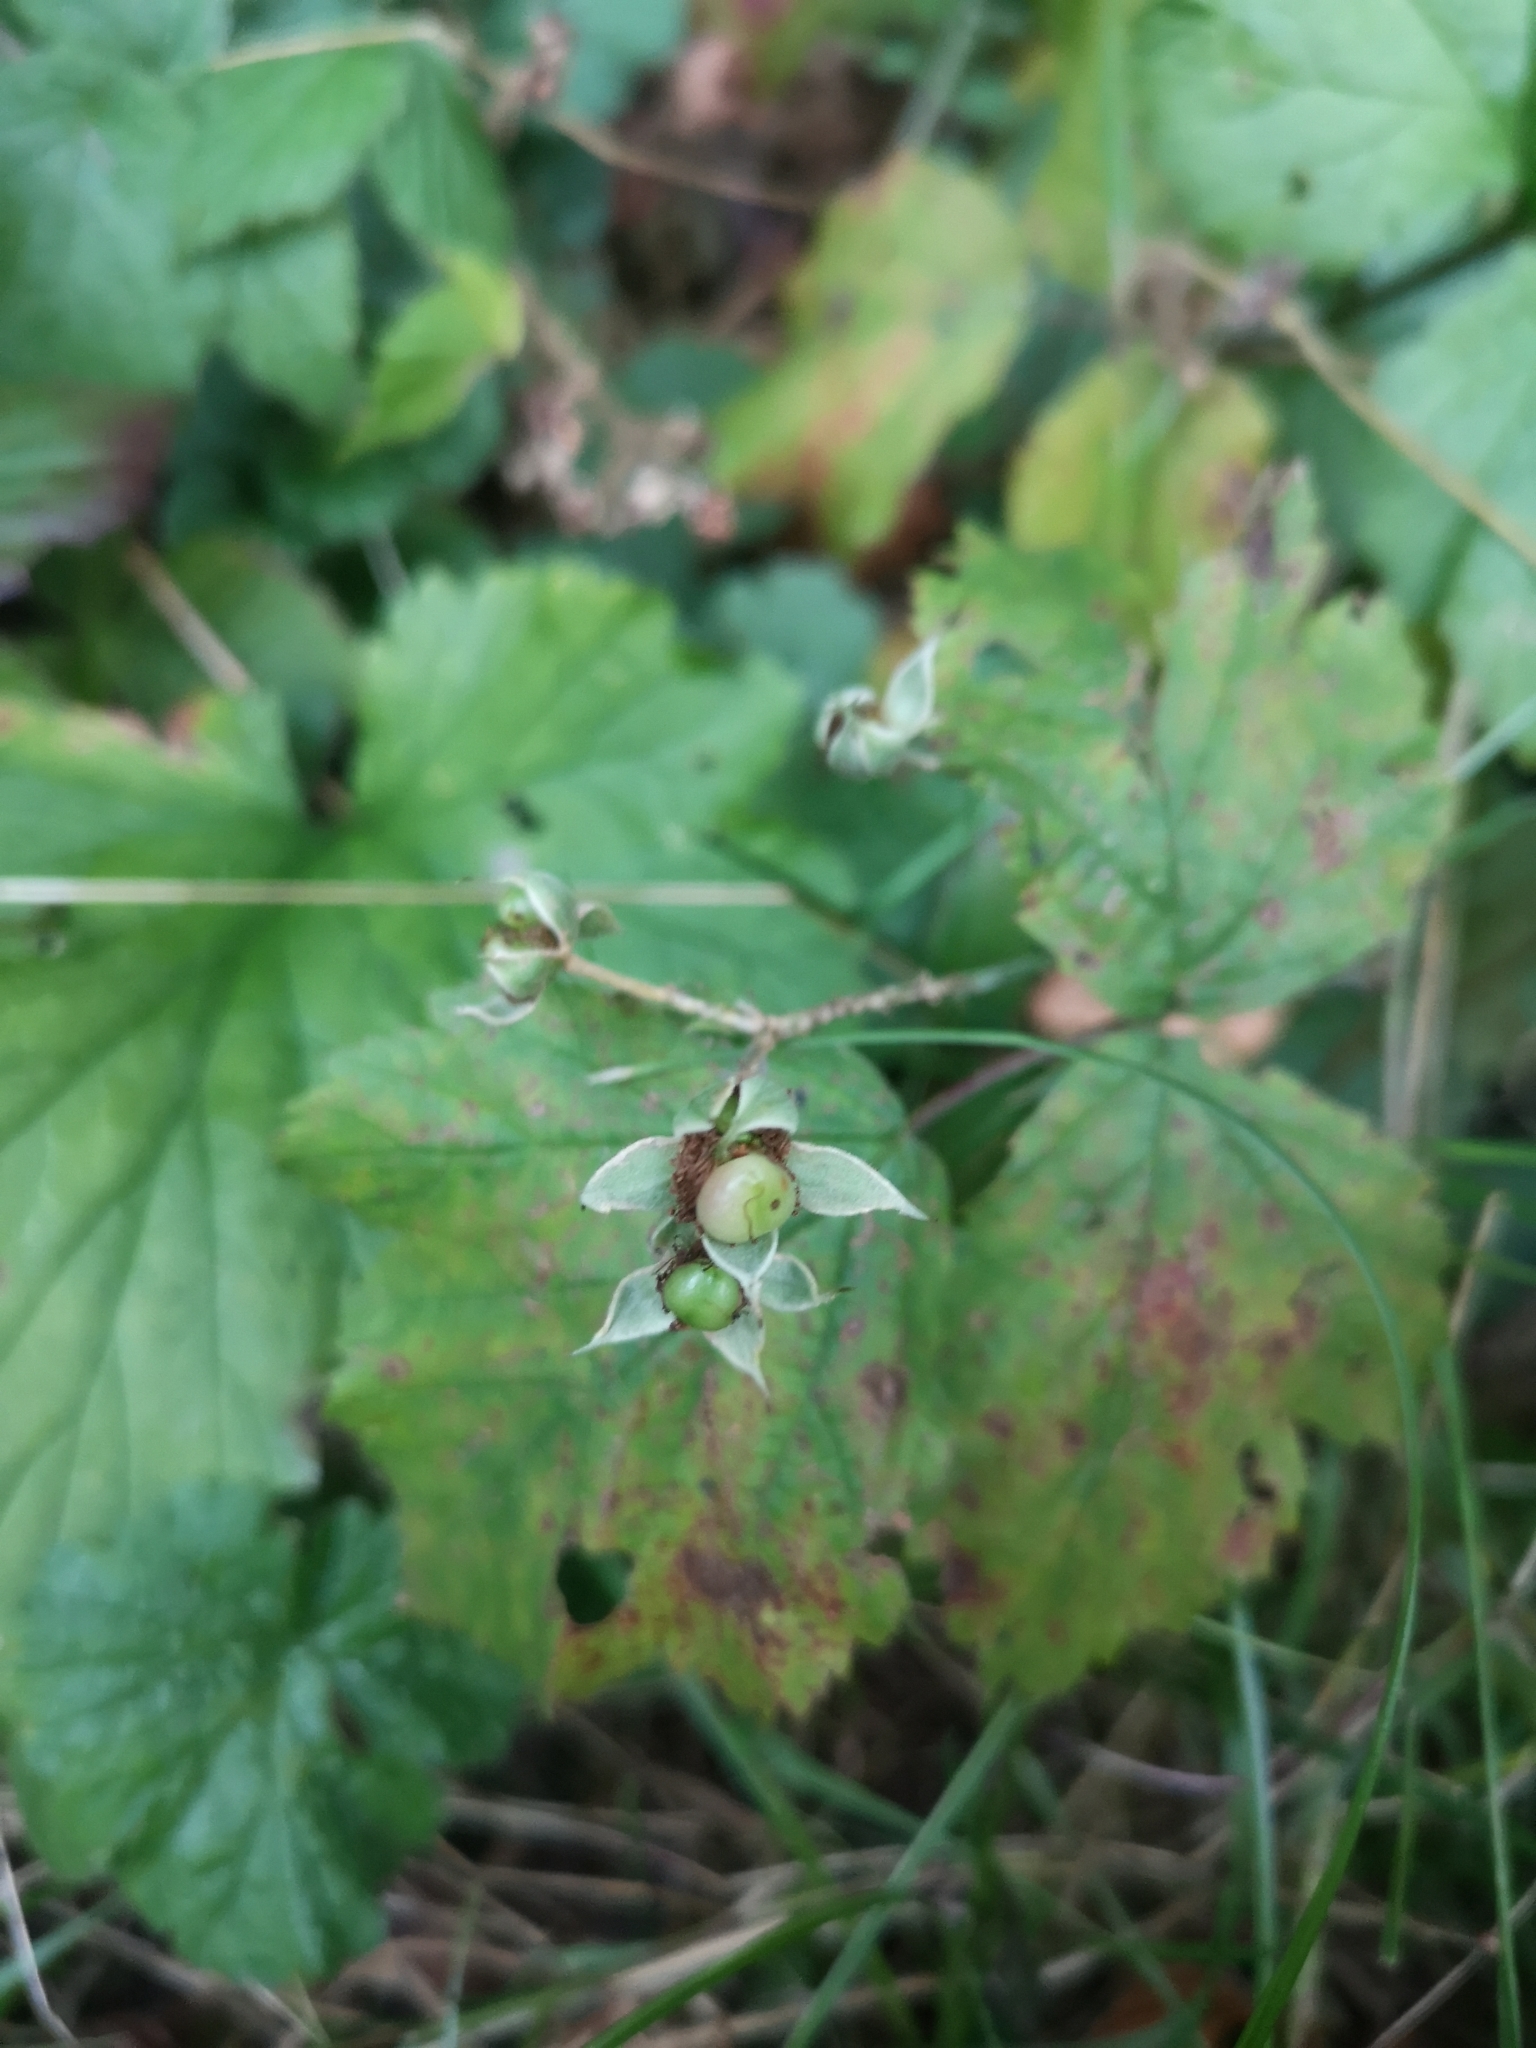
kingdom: Plantae
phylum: Tracheophyta
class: Magnoliopsida
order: Rosales
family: Rosaceae
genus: Rubus
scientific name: Rubus caesius
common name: Dewberry
